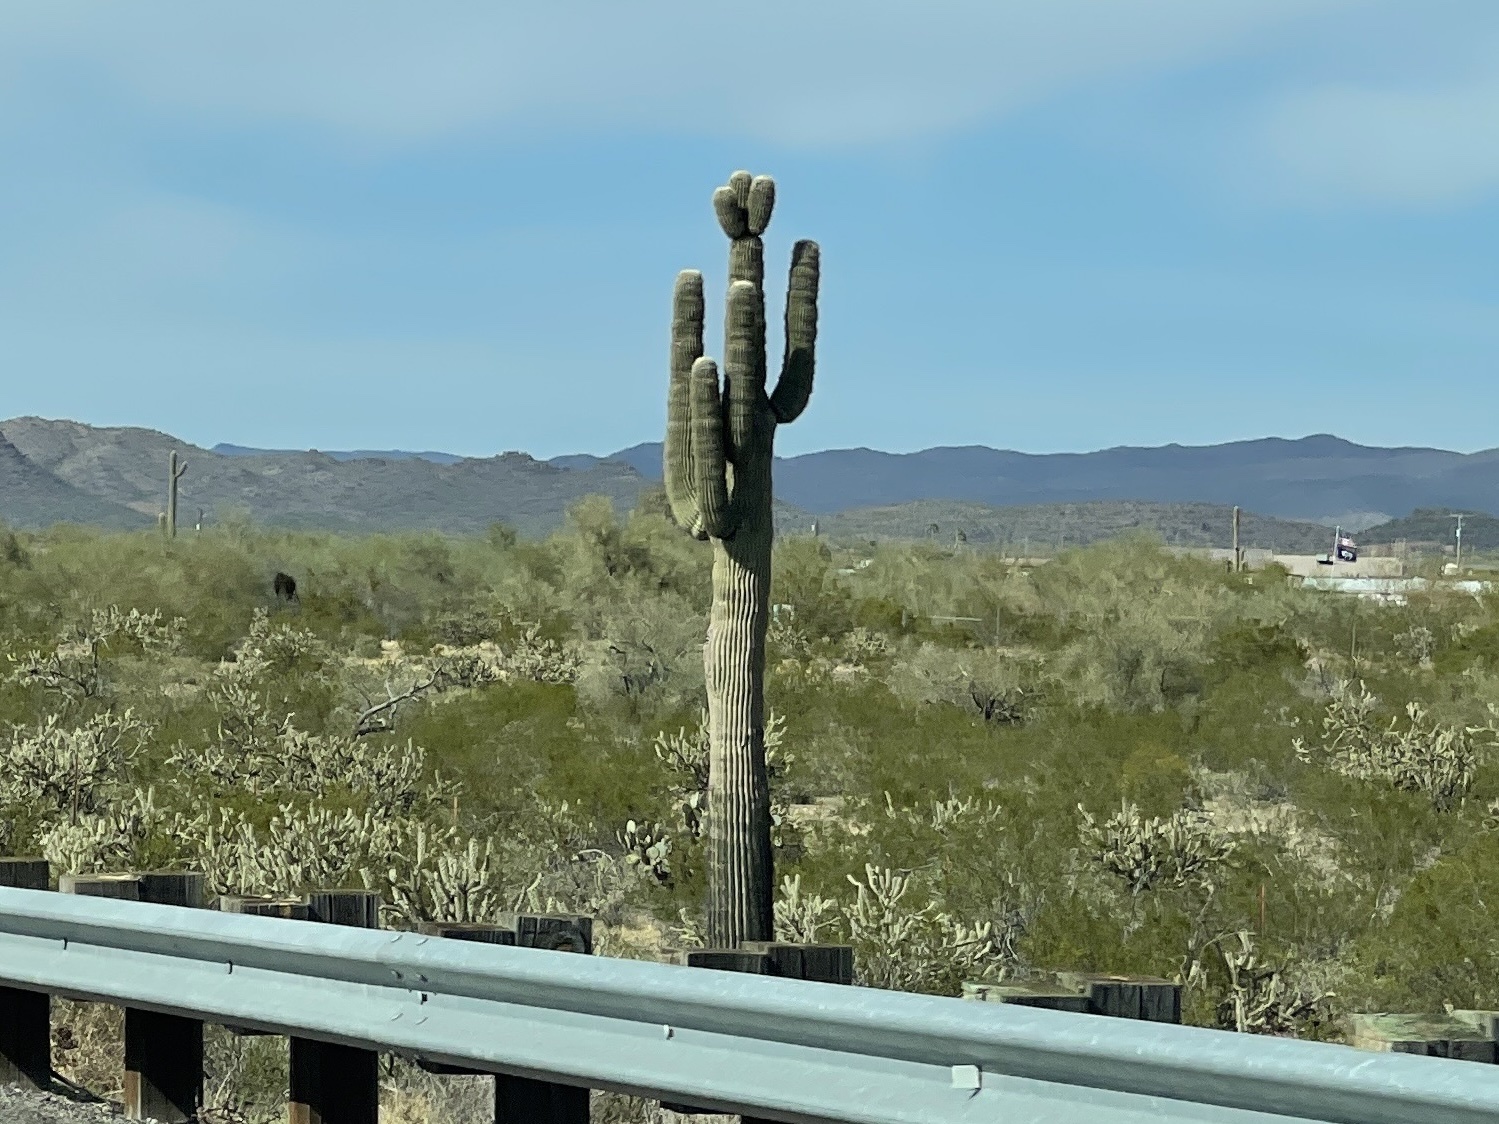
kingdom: Plantae
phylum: Tracheophyta
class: Magnoliopsida
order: Caryophyllales
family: Cactaceae
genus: Carnegiea
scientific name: Carnegiea gigantea
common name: Saguaro
